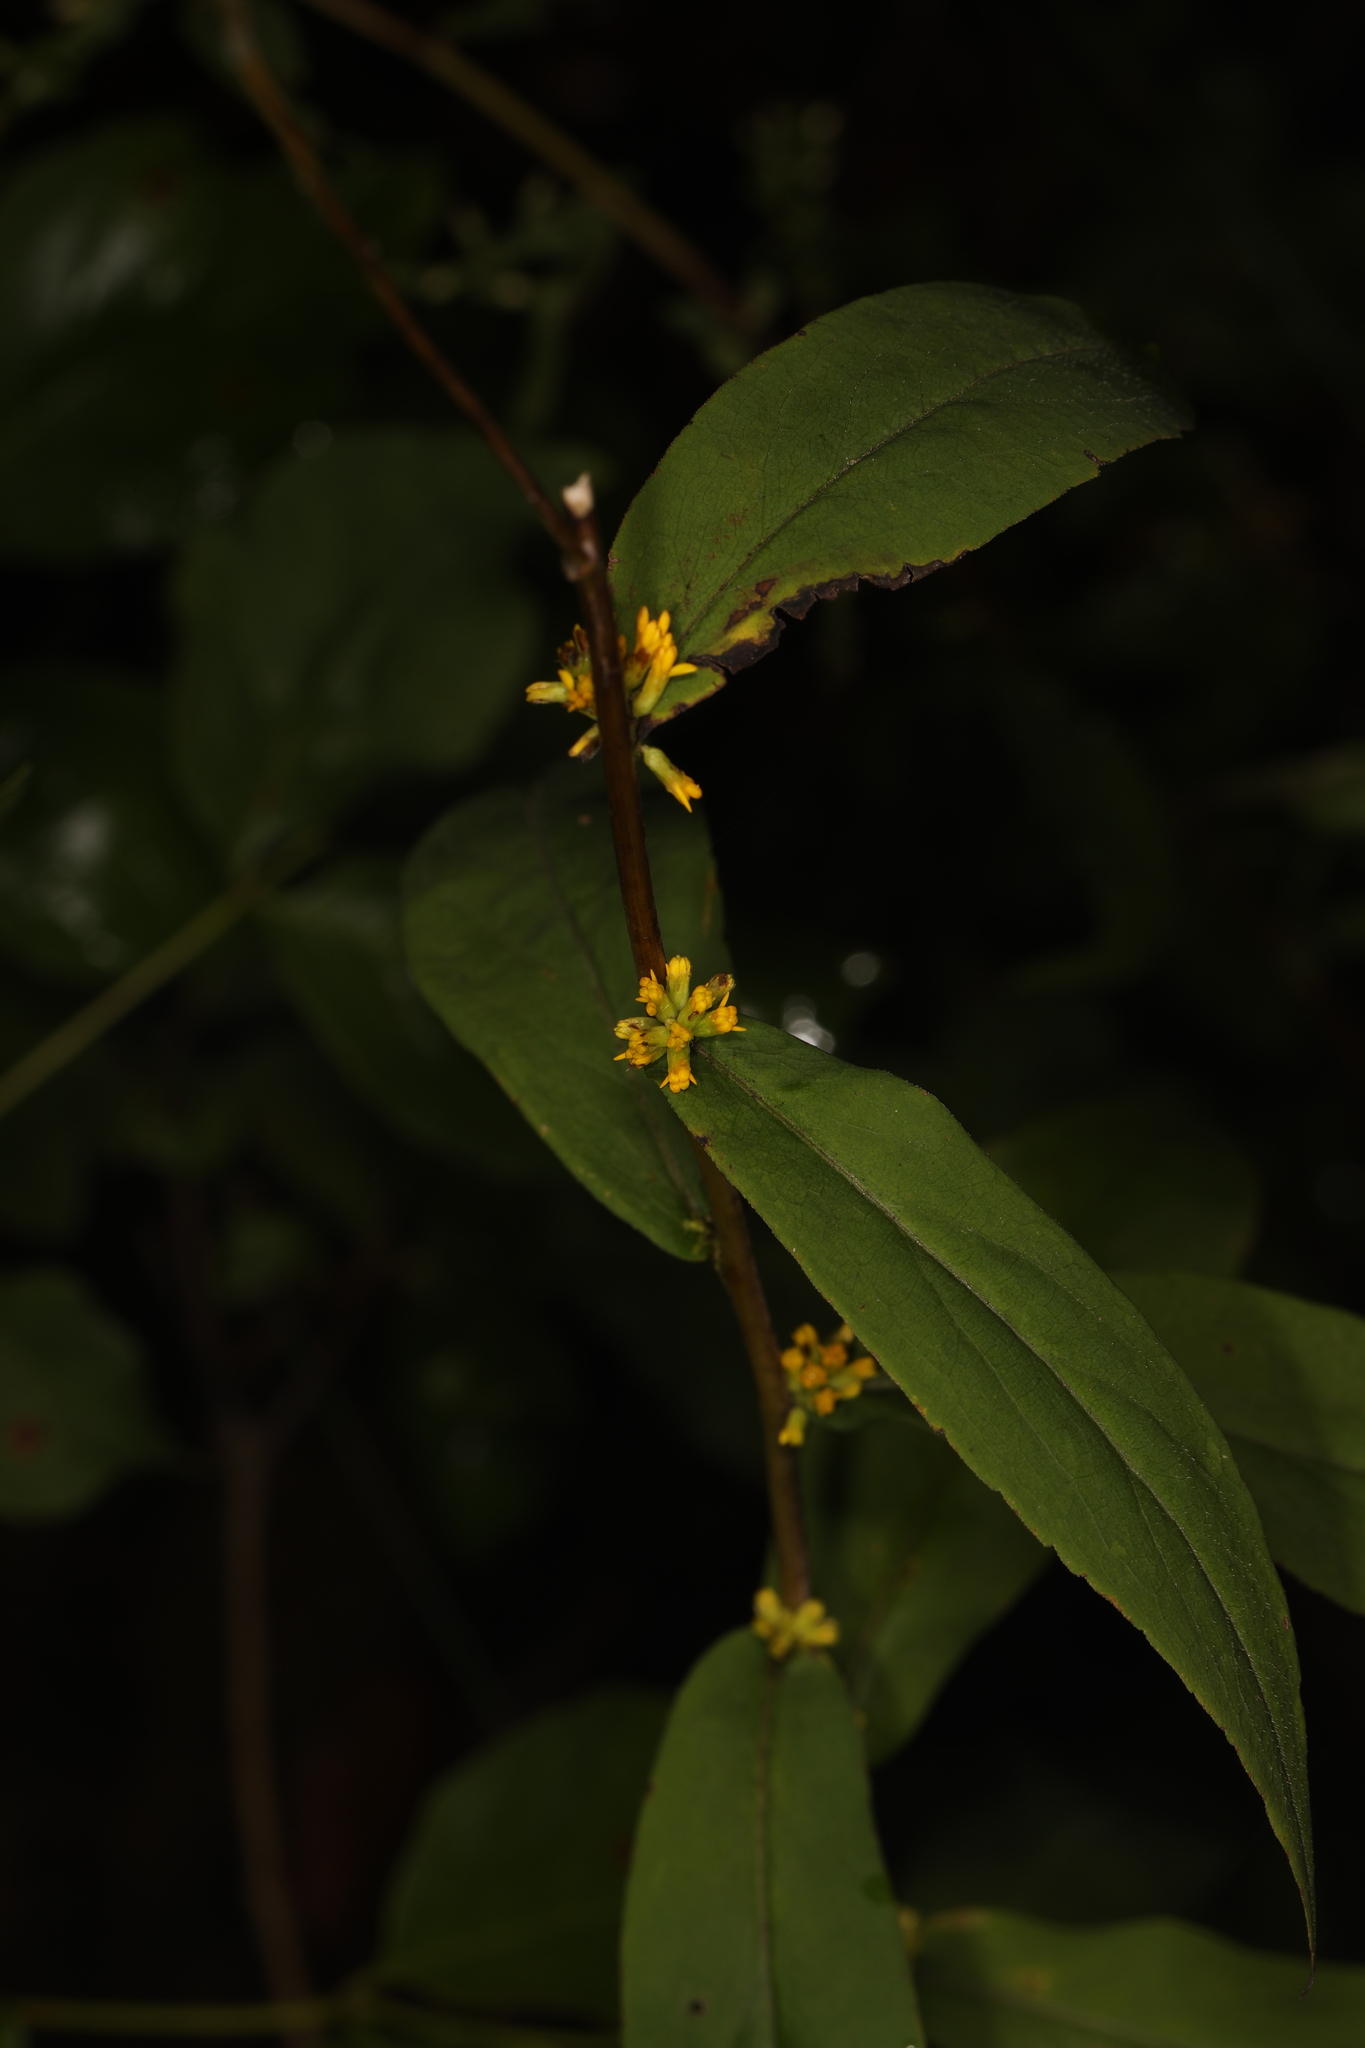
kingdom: Plantae
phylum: Tracheophyta
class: Magnoliopsida
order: Asterales
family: Asteraceae
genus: Solidago
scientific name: Solidago caesia
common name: Woodland goldenrod
